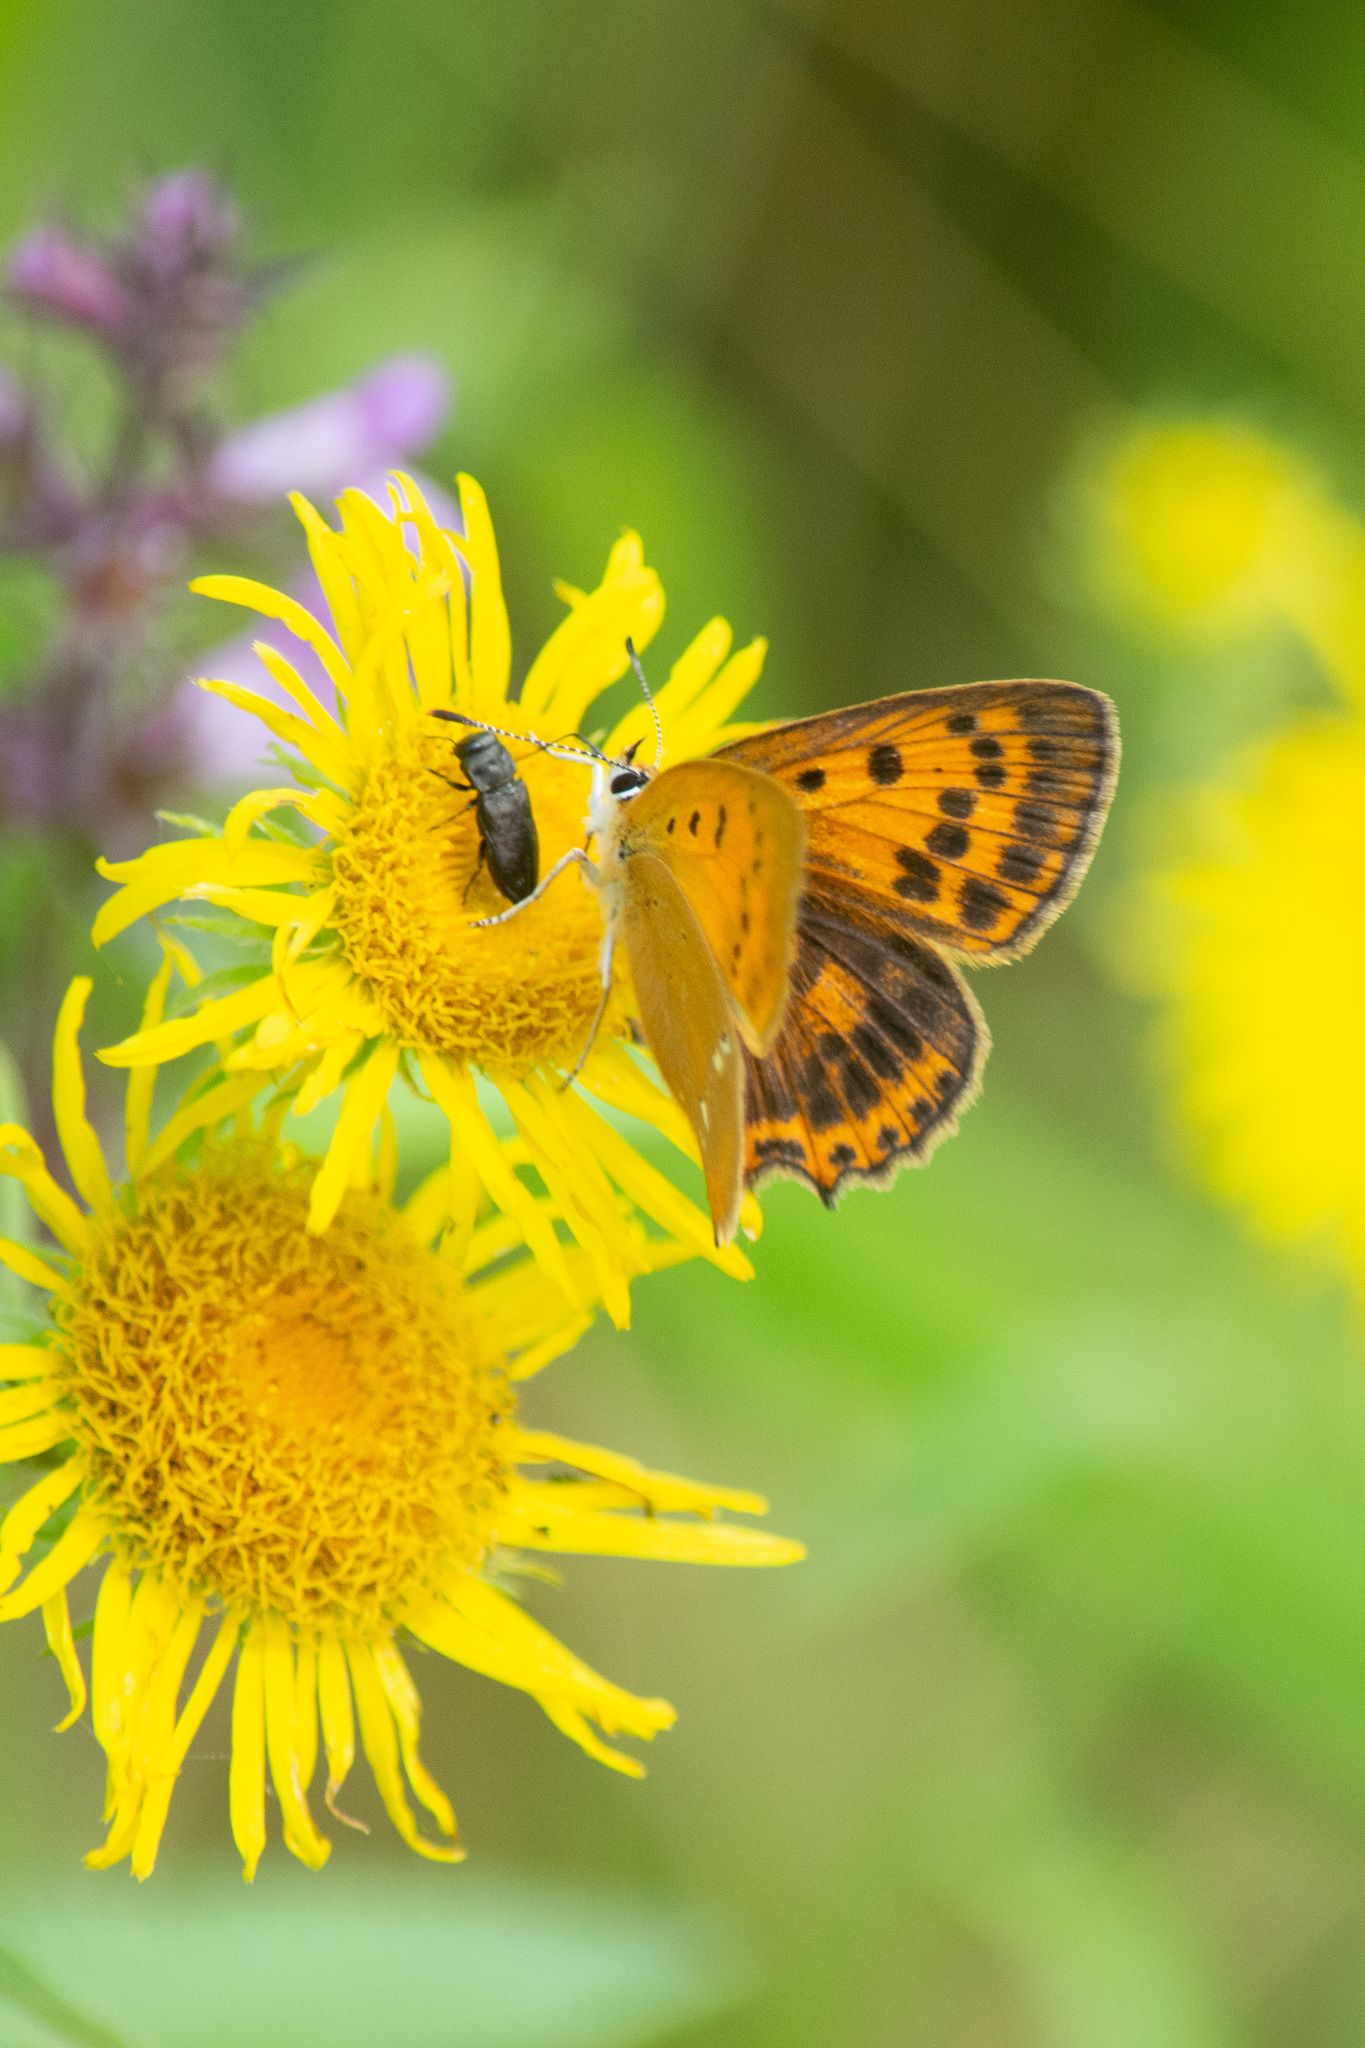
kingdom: Animalia
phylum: Arthropoda
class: Insecta
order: Lepidoptera
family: Lycaenidae
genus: Lycaena
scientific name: Lycaena virgaureae
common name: Scarce copper
